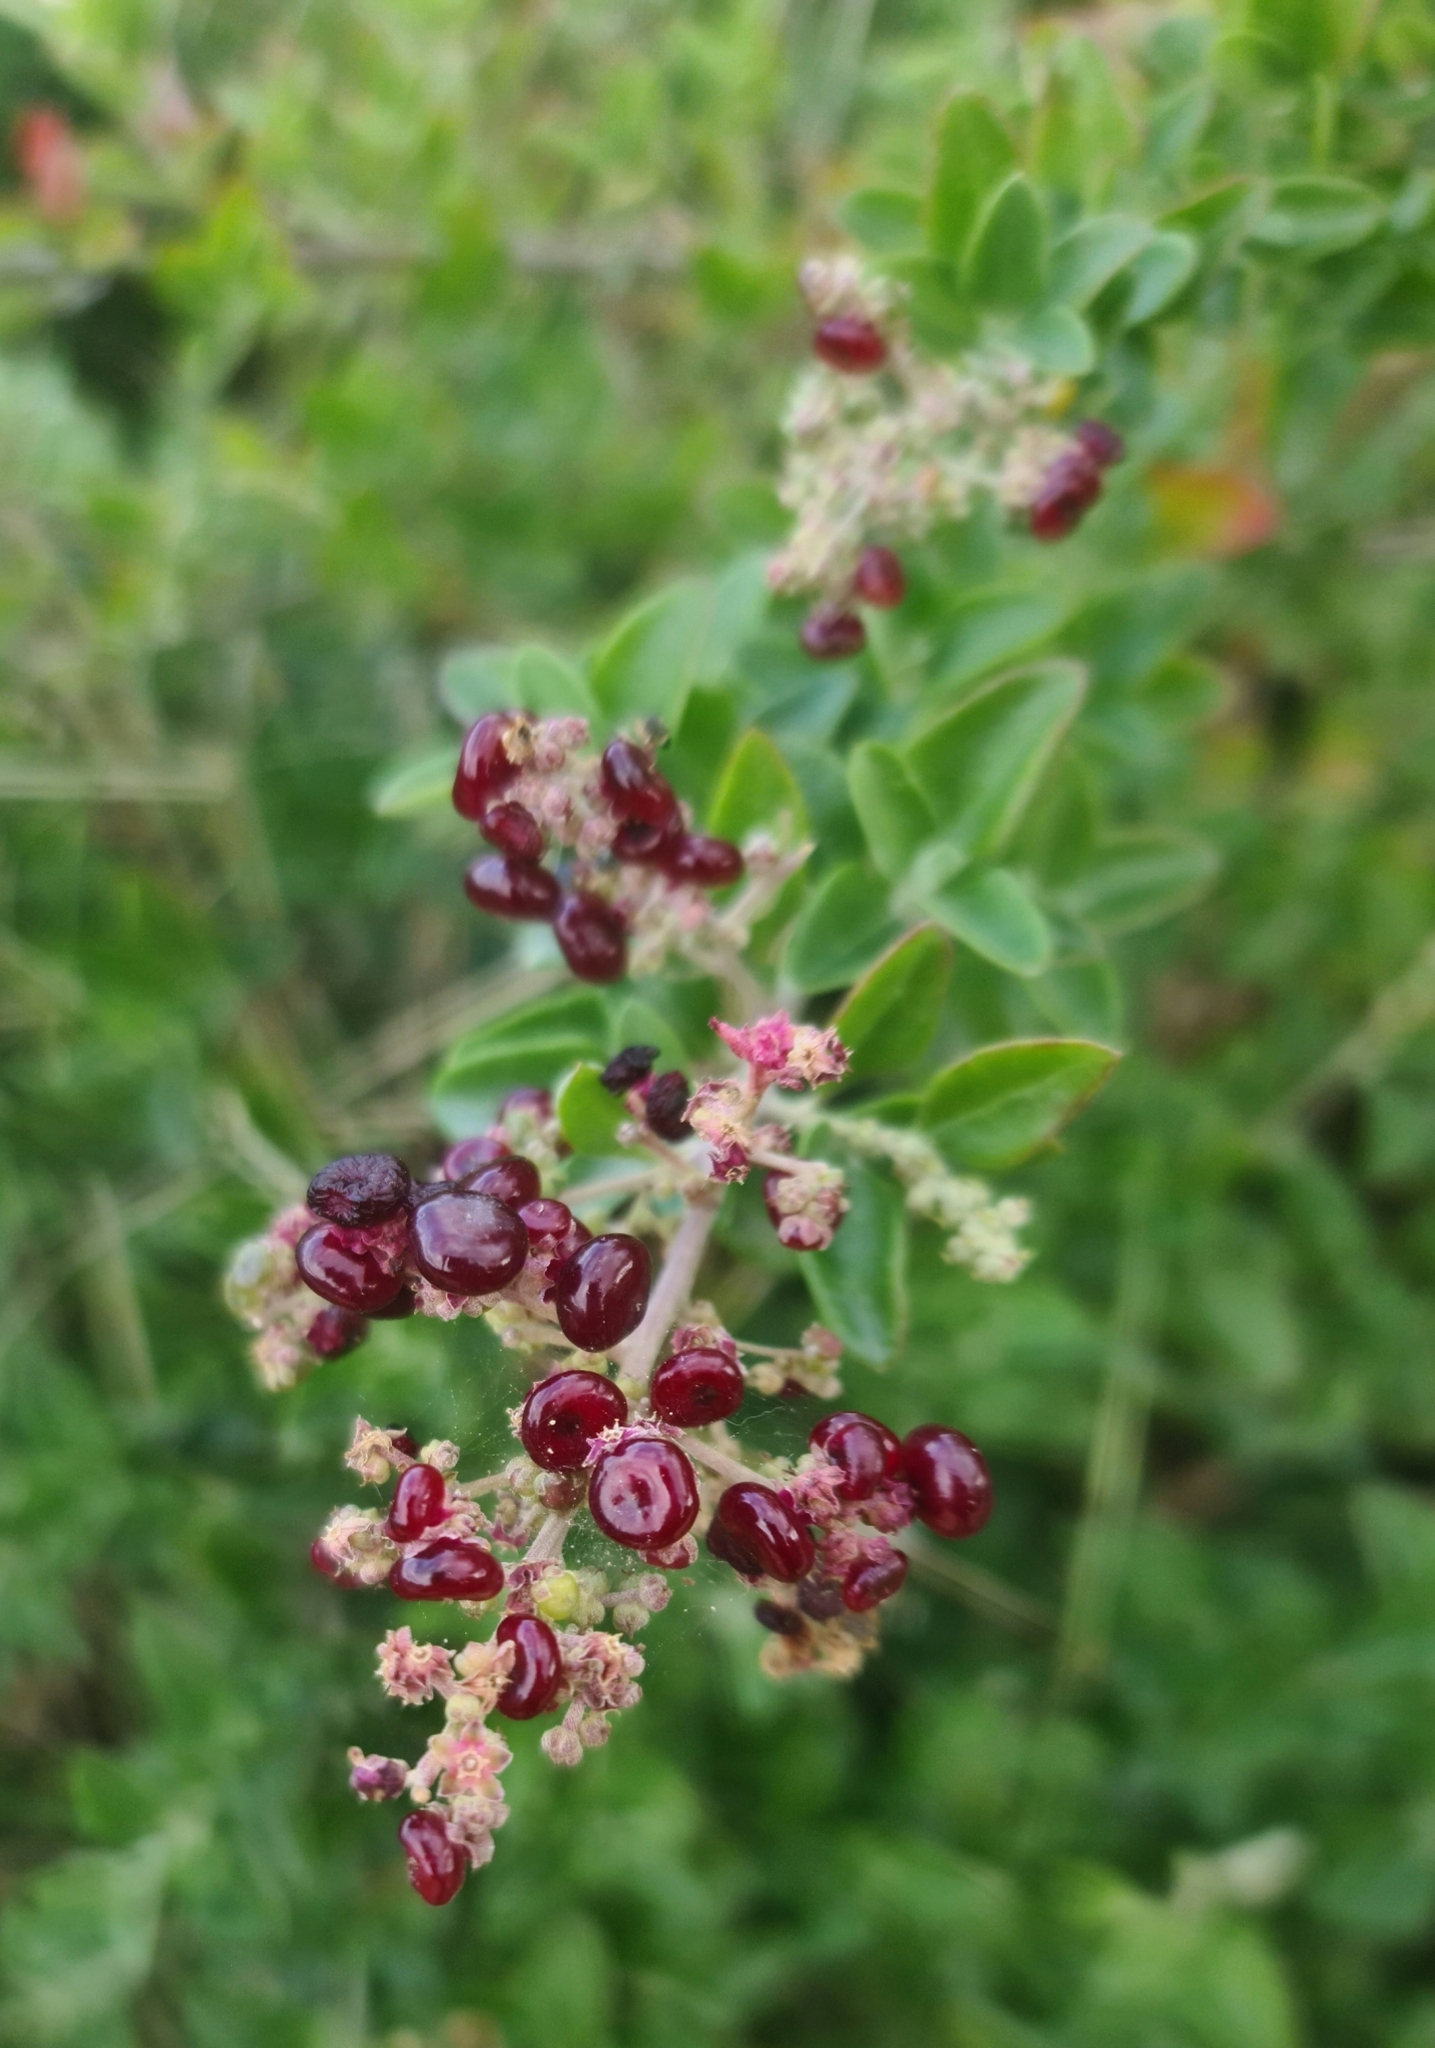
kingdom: Plantae
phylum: Tracheophyta
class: Magnoliopsida
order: Caryophyllales
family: Amaranthaceae
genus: Chenopodium
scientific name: Chenopodium candolleanum
